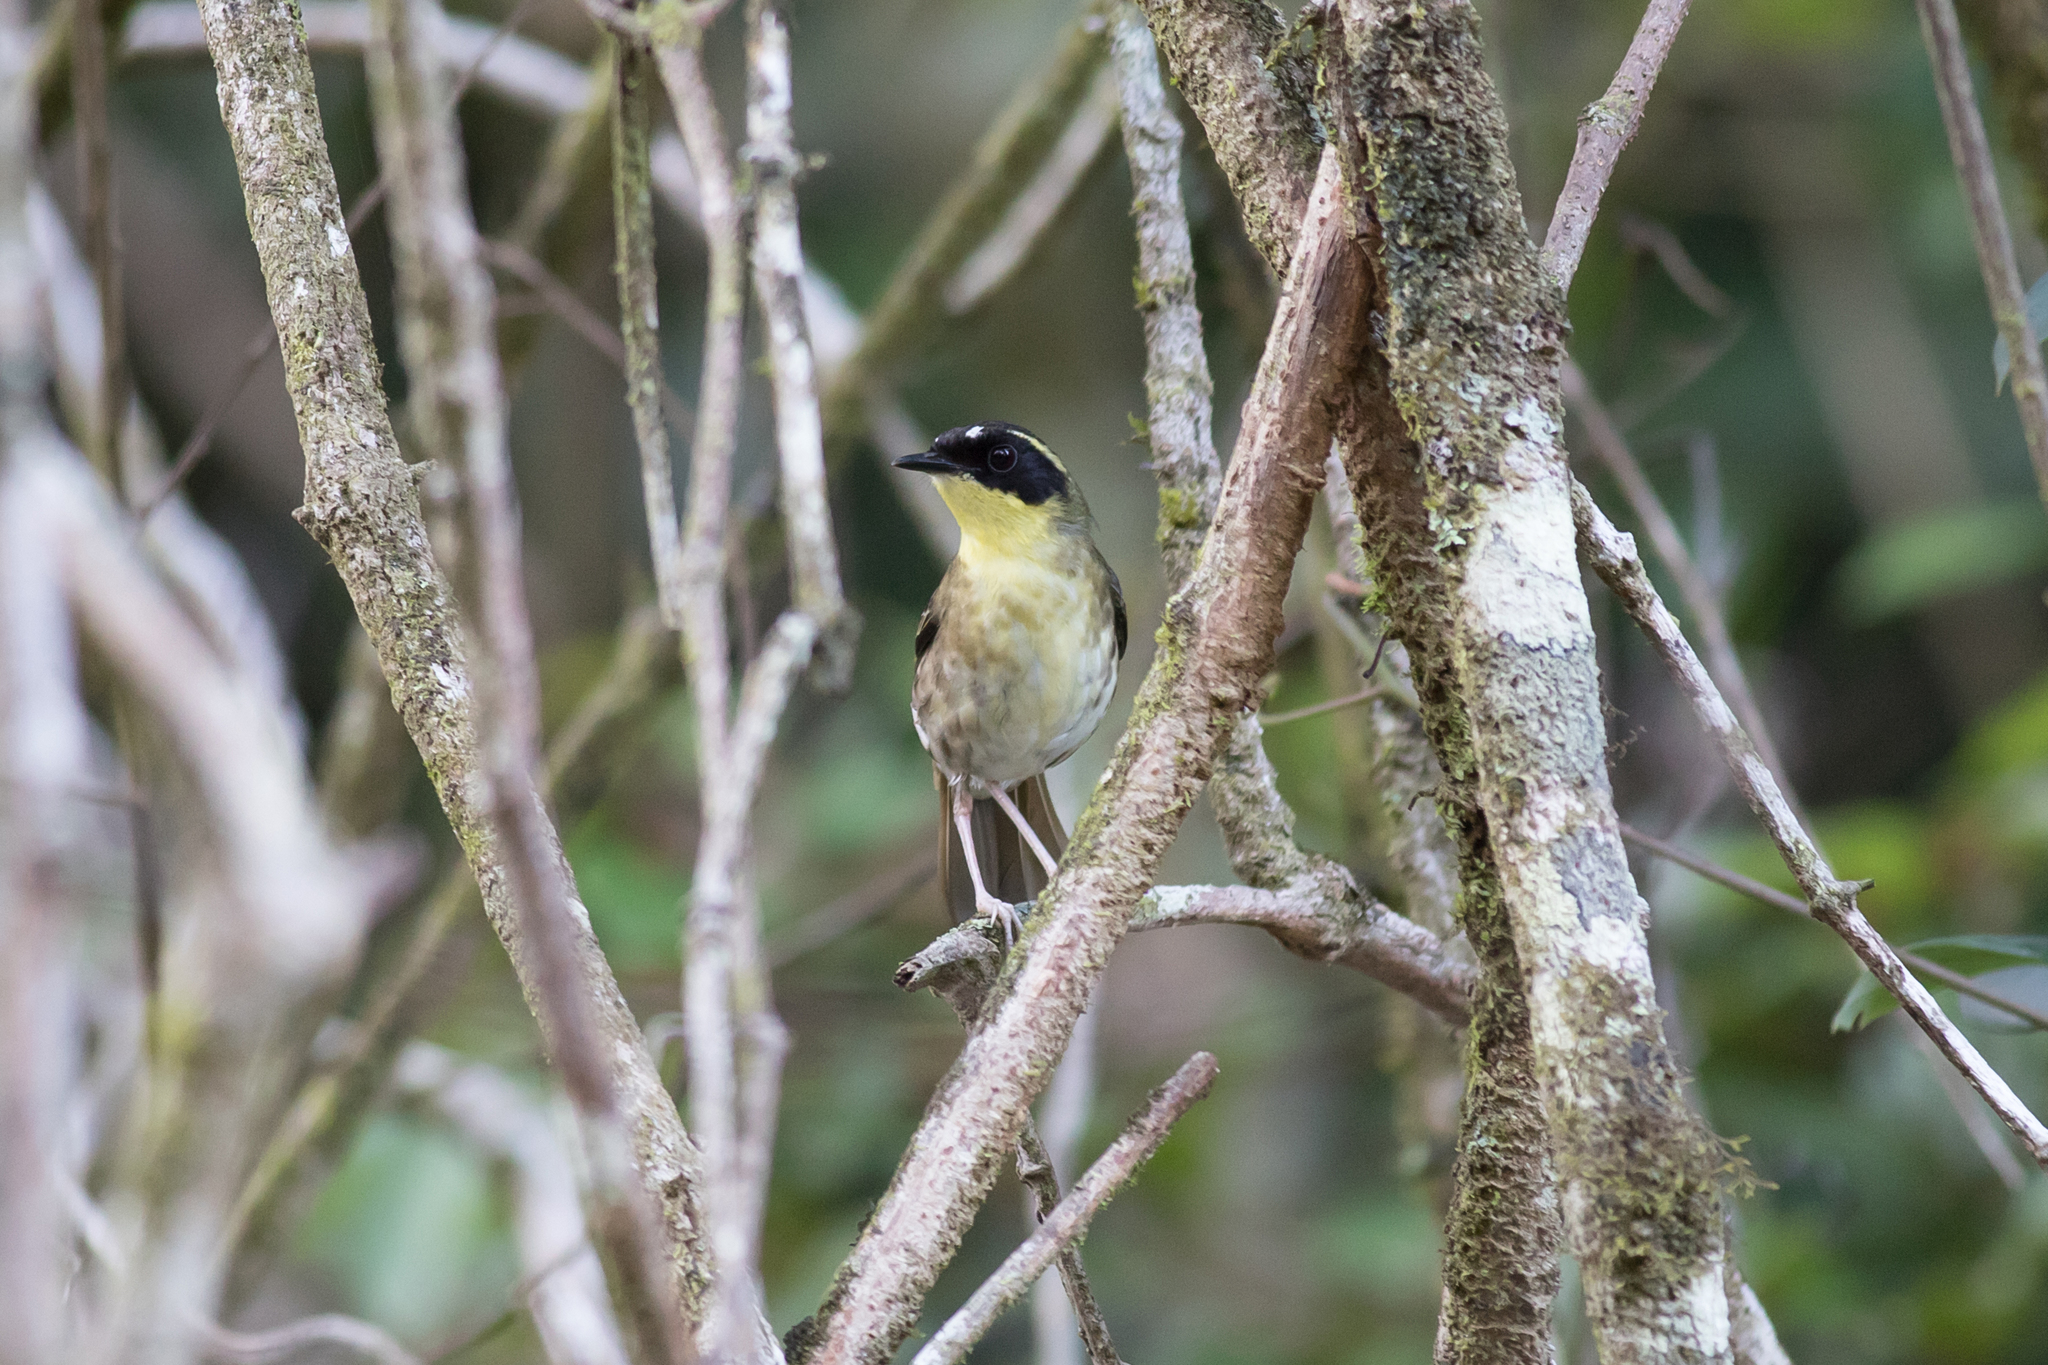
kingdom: Animalia
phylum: Chordata
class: Aves
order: Passeriformes
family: Acanthizidae
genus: Sericornis
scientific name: Sericornis citreogularis
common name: Yellow-throated scrubwren
